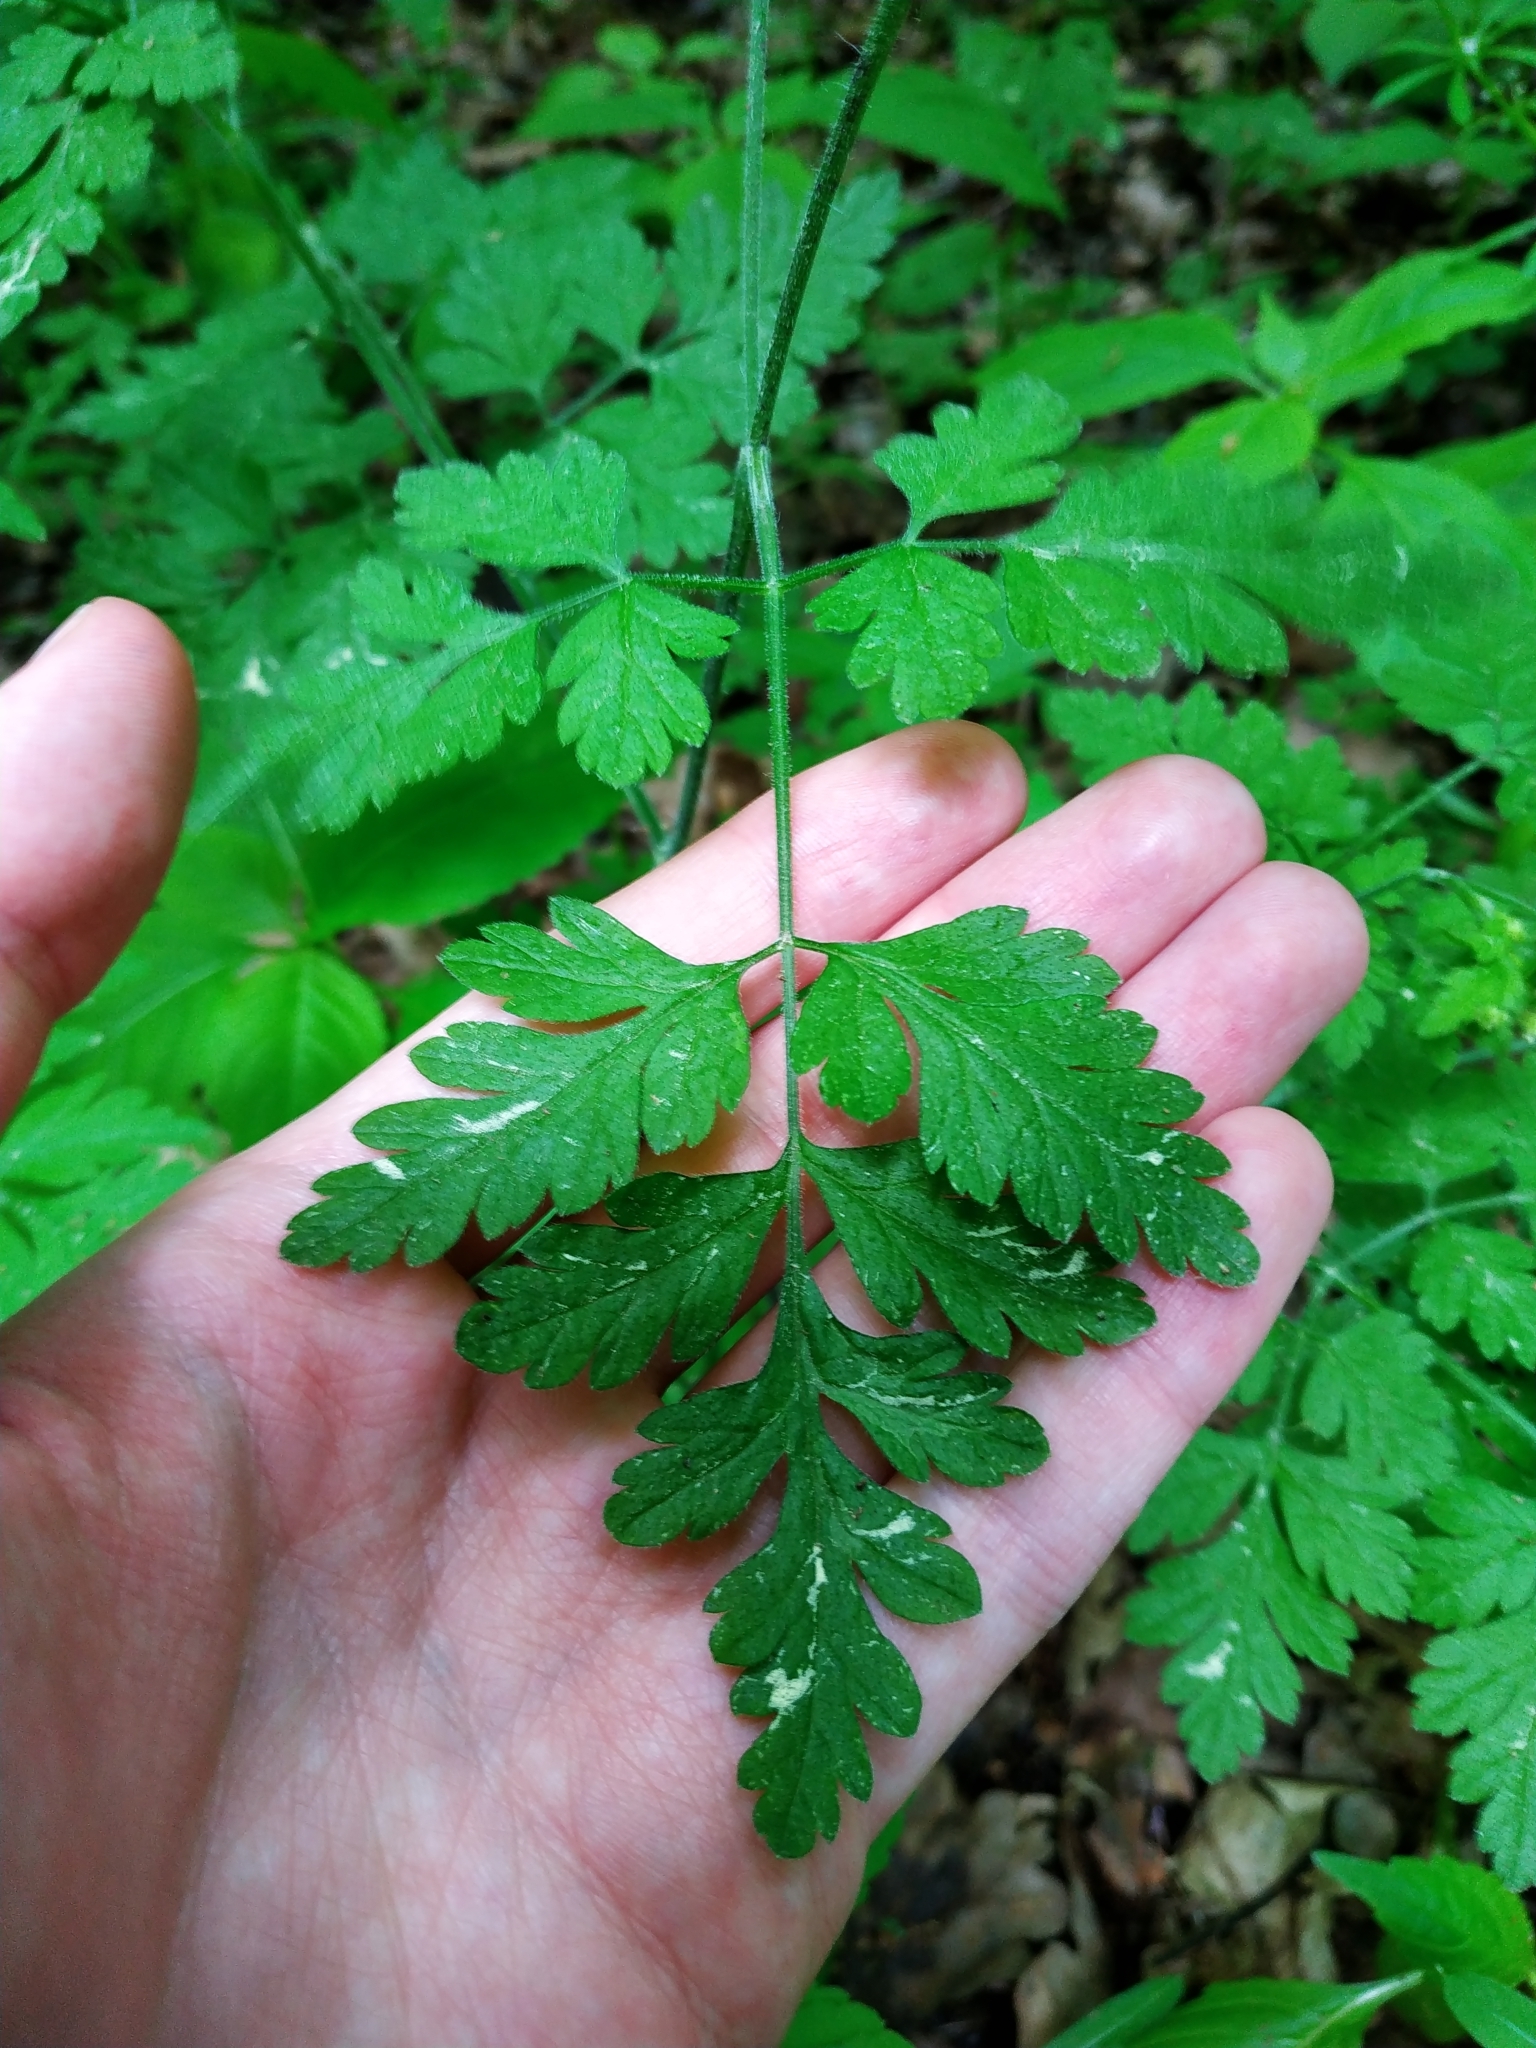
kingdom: Plantae
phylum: Tracheophyta
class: Magnoliopsida
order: Apiales
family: Apiaceae
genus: Chaerophyllum
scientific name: Chaerophyllum temulum
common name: Rough chervil
